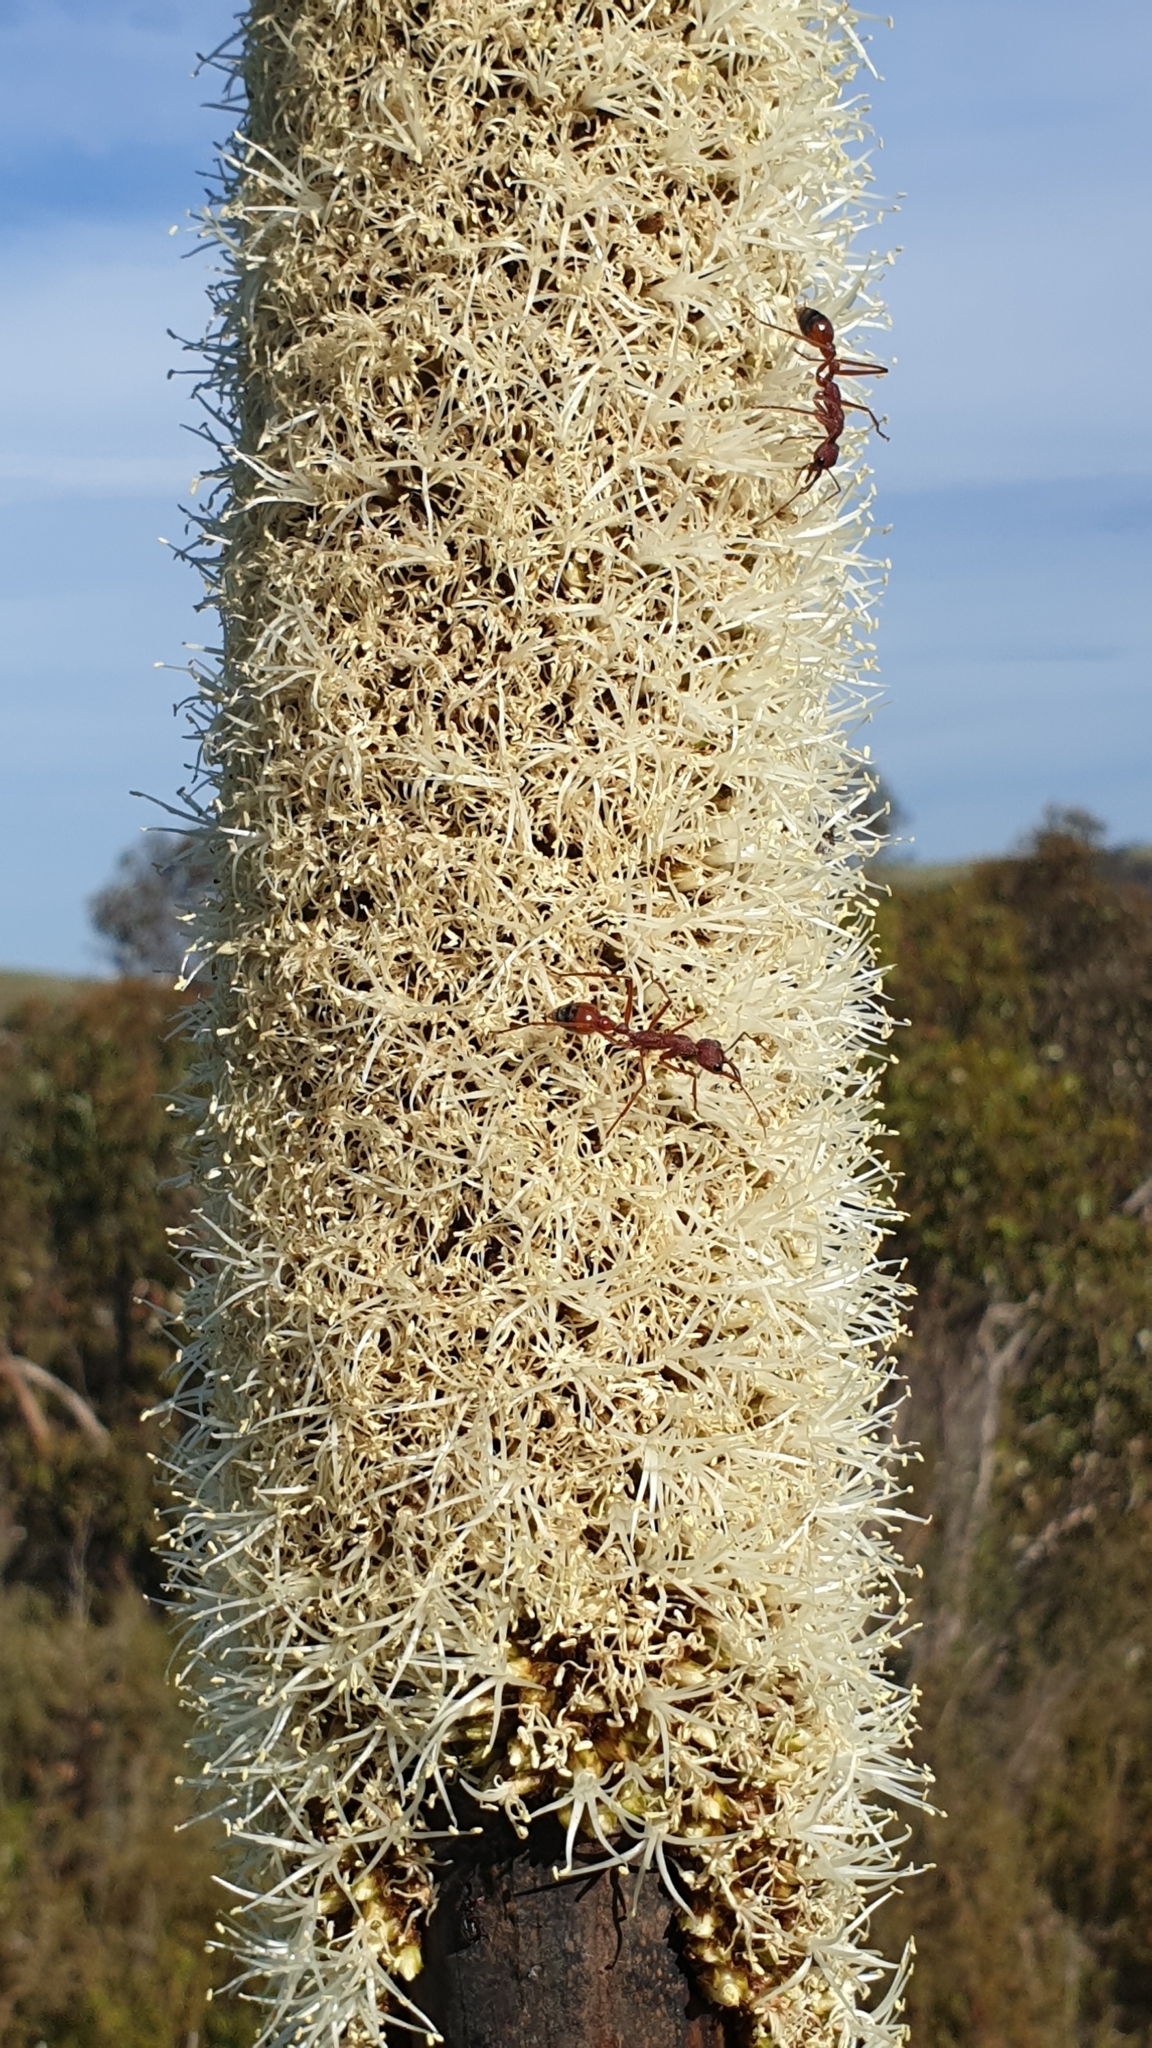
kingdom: Plantae
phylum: Tracheophyta
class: Liliopsida
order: Asparagales
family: Asphodelaceae
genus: Xanthorrhoea
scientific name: Xanthorrhoea semiplana
